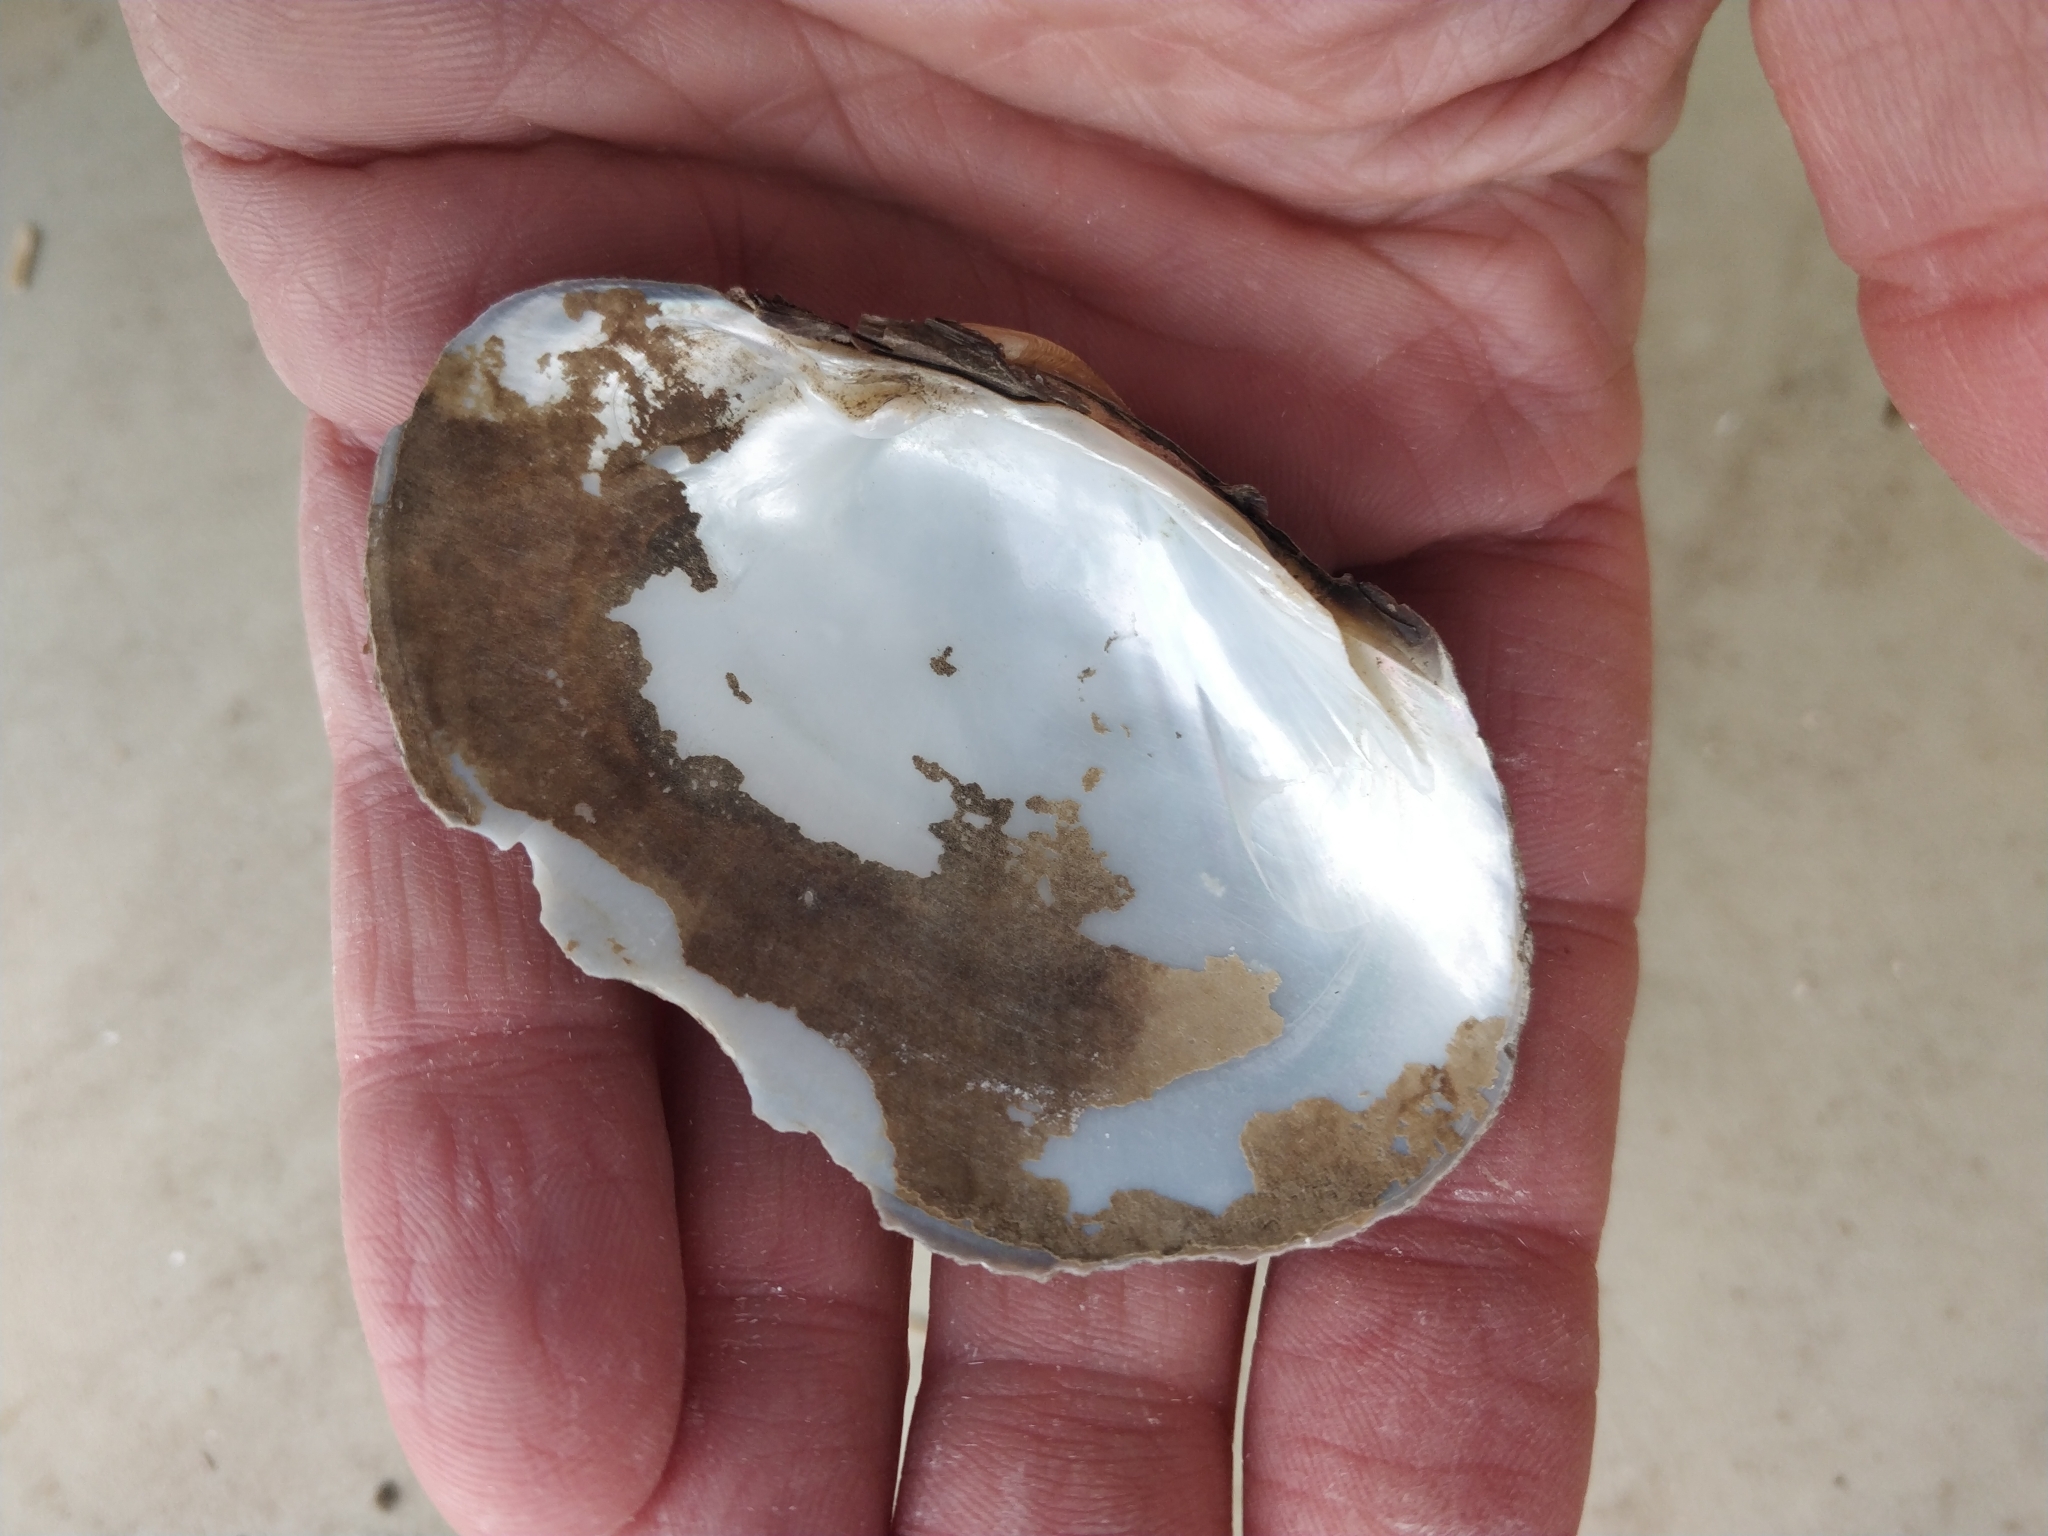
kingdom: Animalia
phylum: Mollusca
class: Bivalvia
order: Unionida
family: Unionidae
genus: Lampsilis
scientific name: Lampsilis cardium
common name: Plain pocketbook
